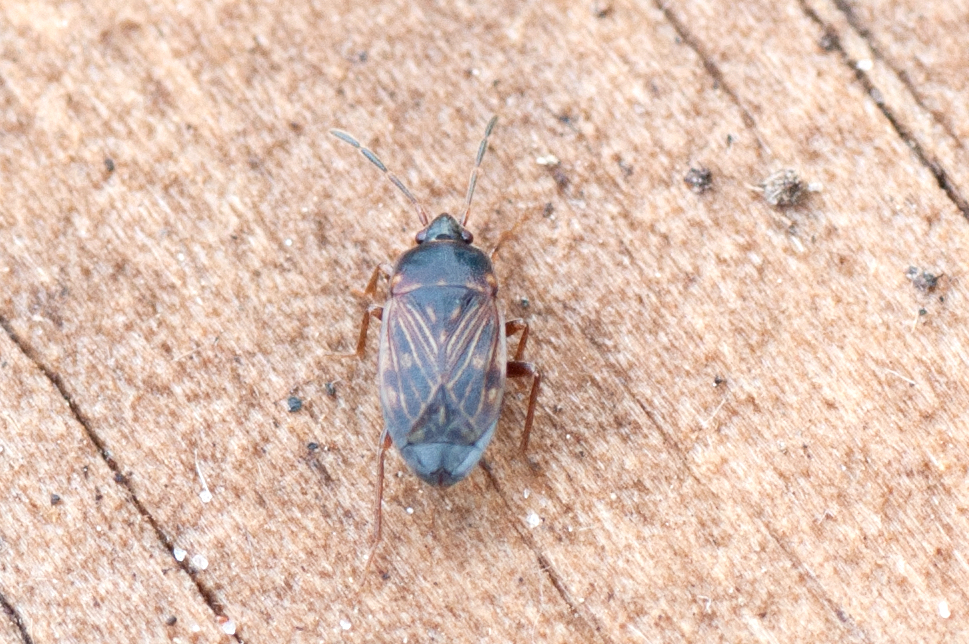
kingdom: Animalia
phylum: Arthropoda
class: Insecta
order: Hemiptera
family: Rhyparochromidae
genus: Cryphula
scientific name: Cryphula trimaculata
